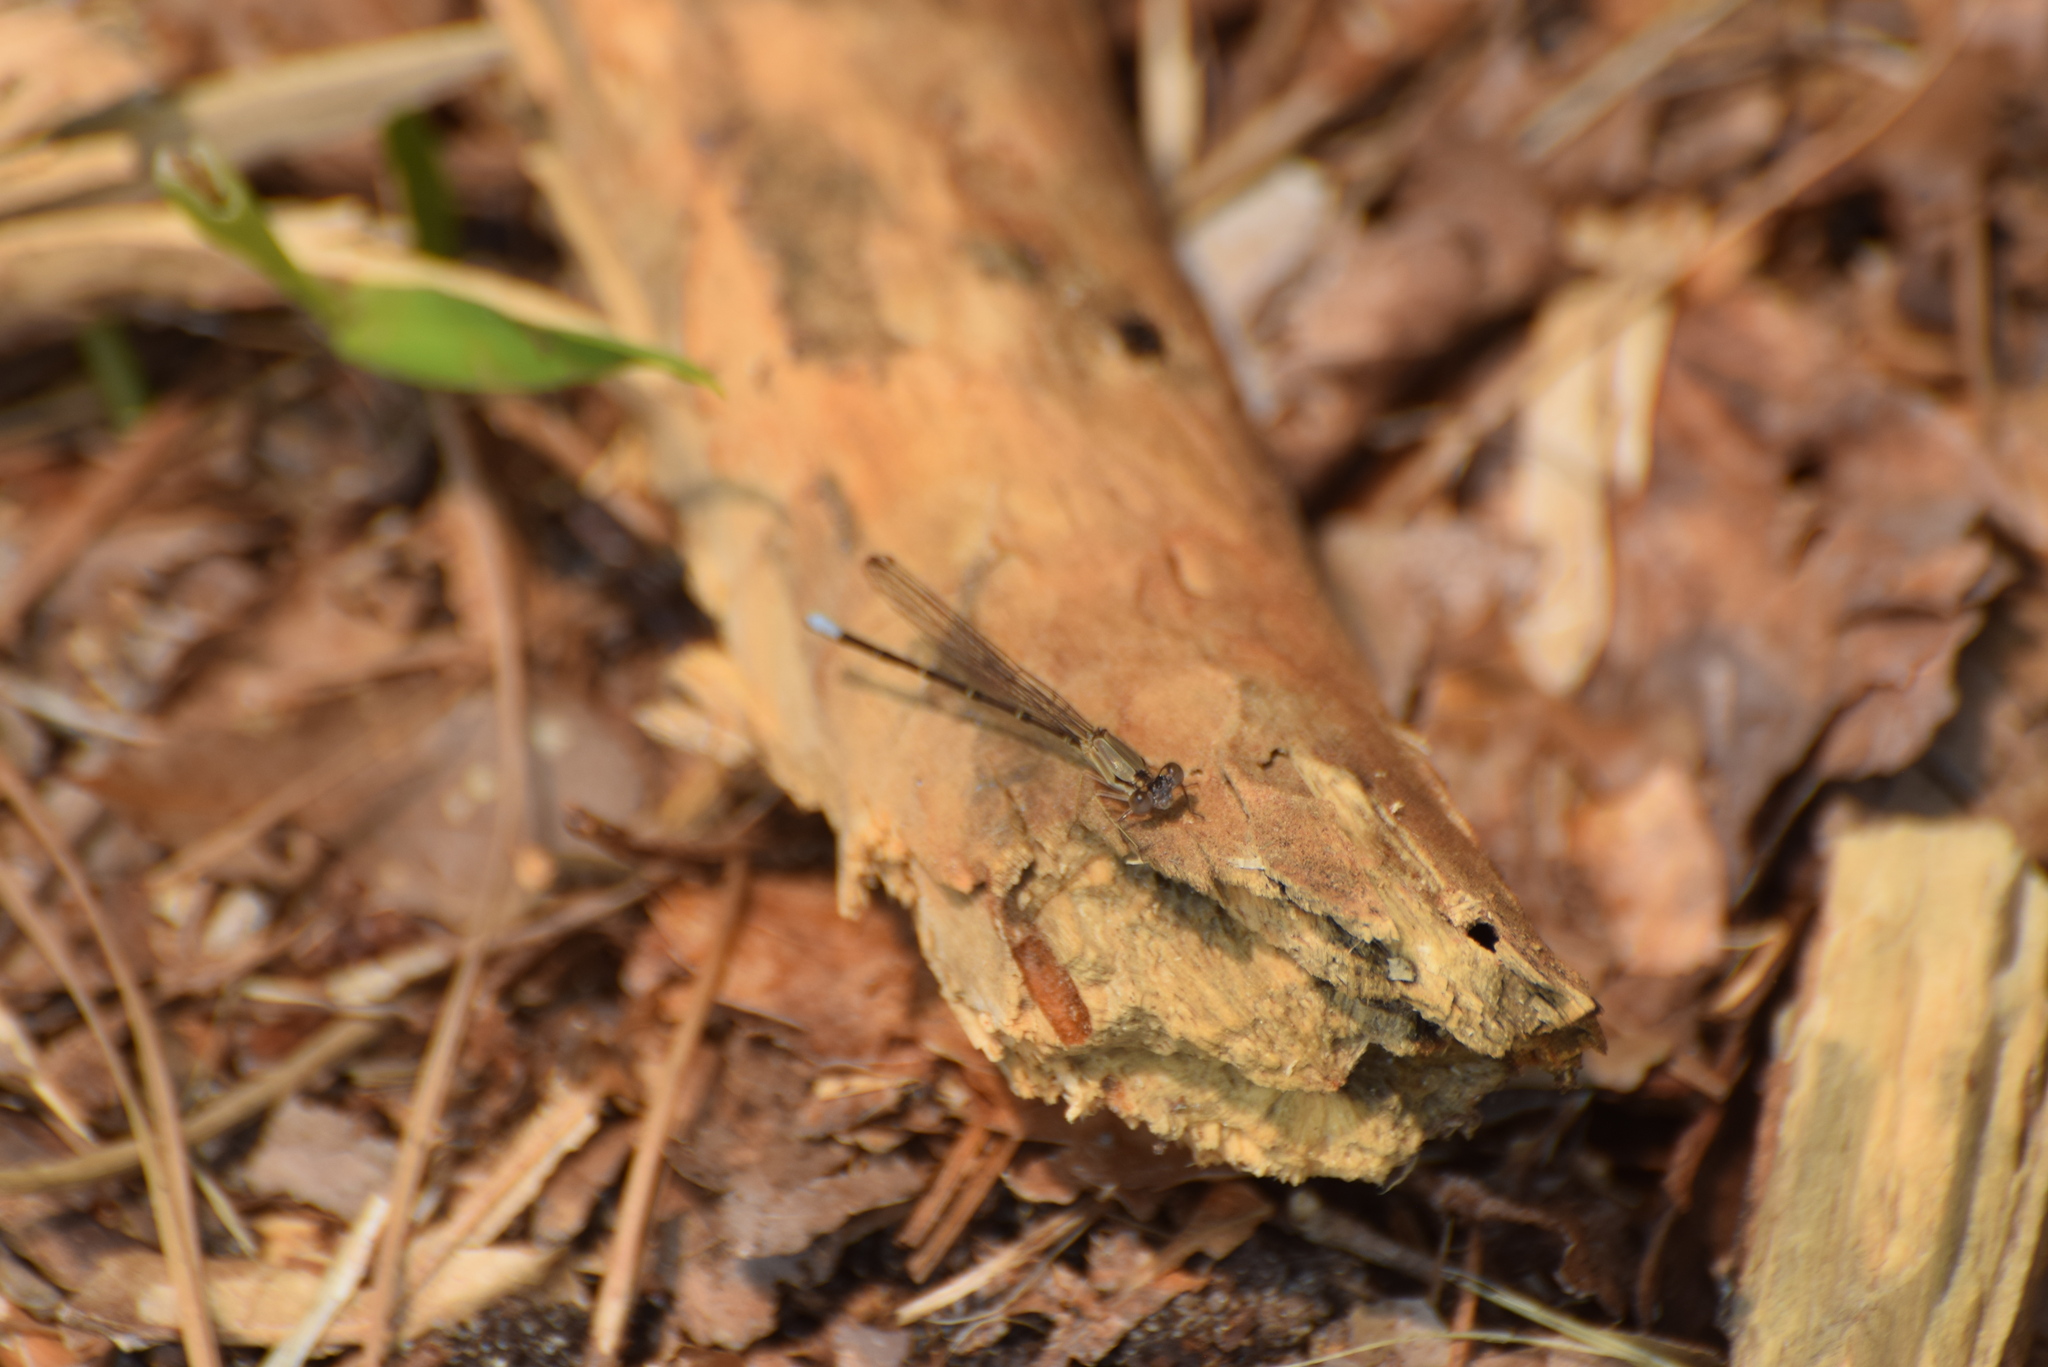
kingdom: Animalia
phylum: Arthropoda
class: Insecta
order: Odonata
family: Coenagrionidae
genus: Argia
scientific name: Argia apicalis
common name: Blue-fronted dancer
